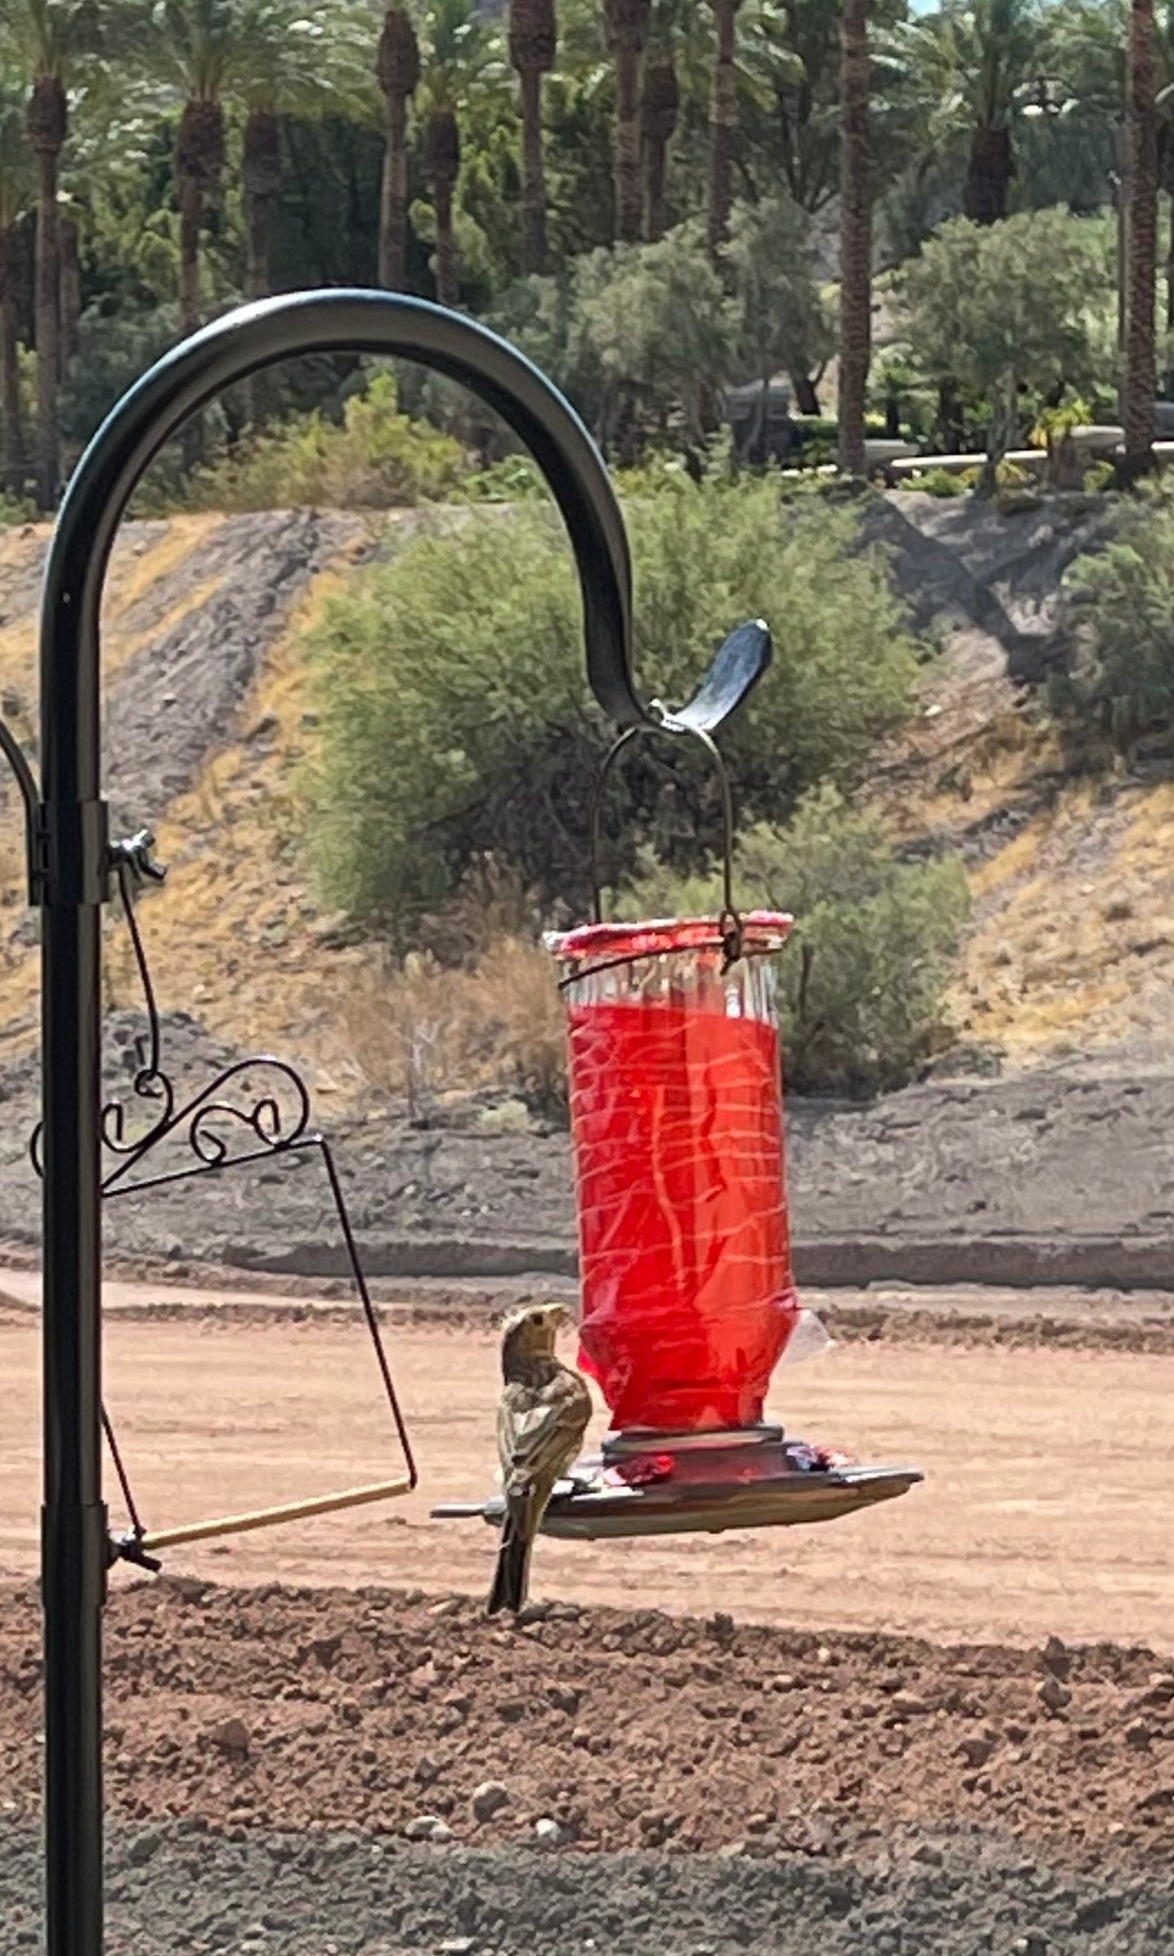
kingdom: Animalia
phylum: Chordata
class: Aves
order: Passeriformes
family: Fringillidae
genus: Haemorhous
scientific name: Haemorhous mexicanus
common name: House finch
